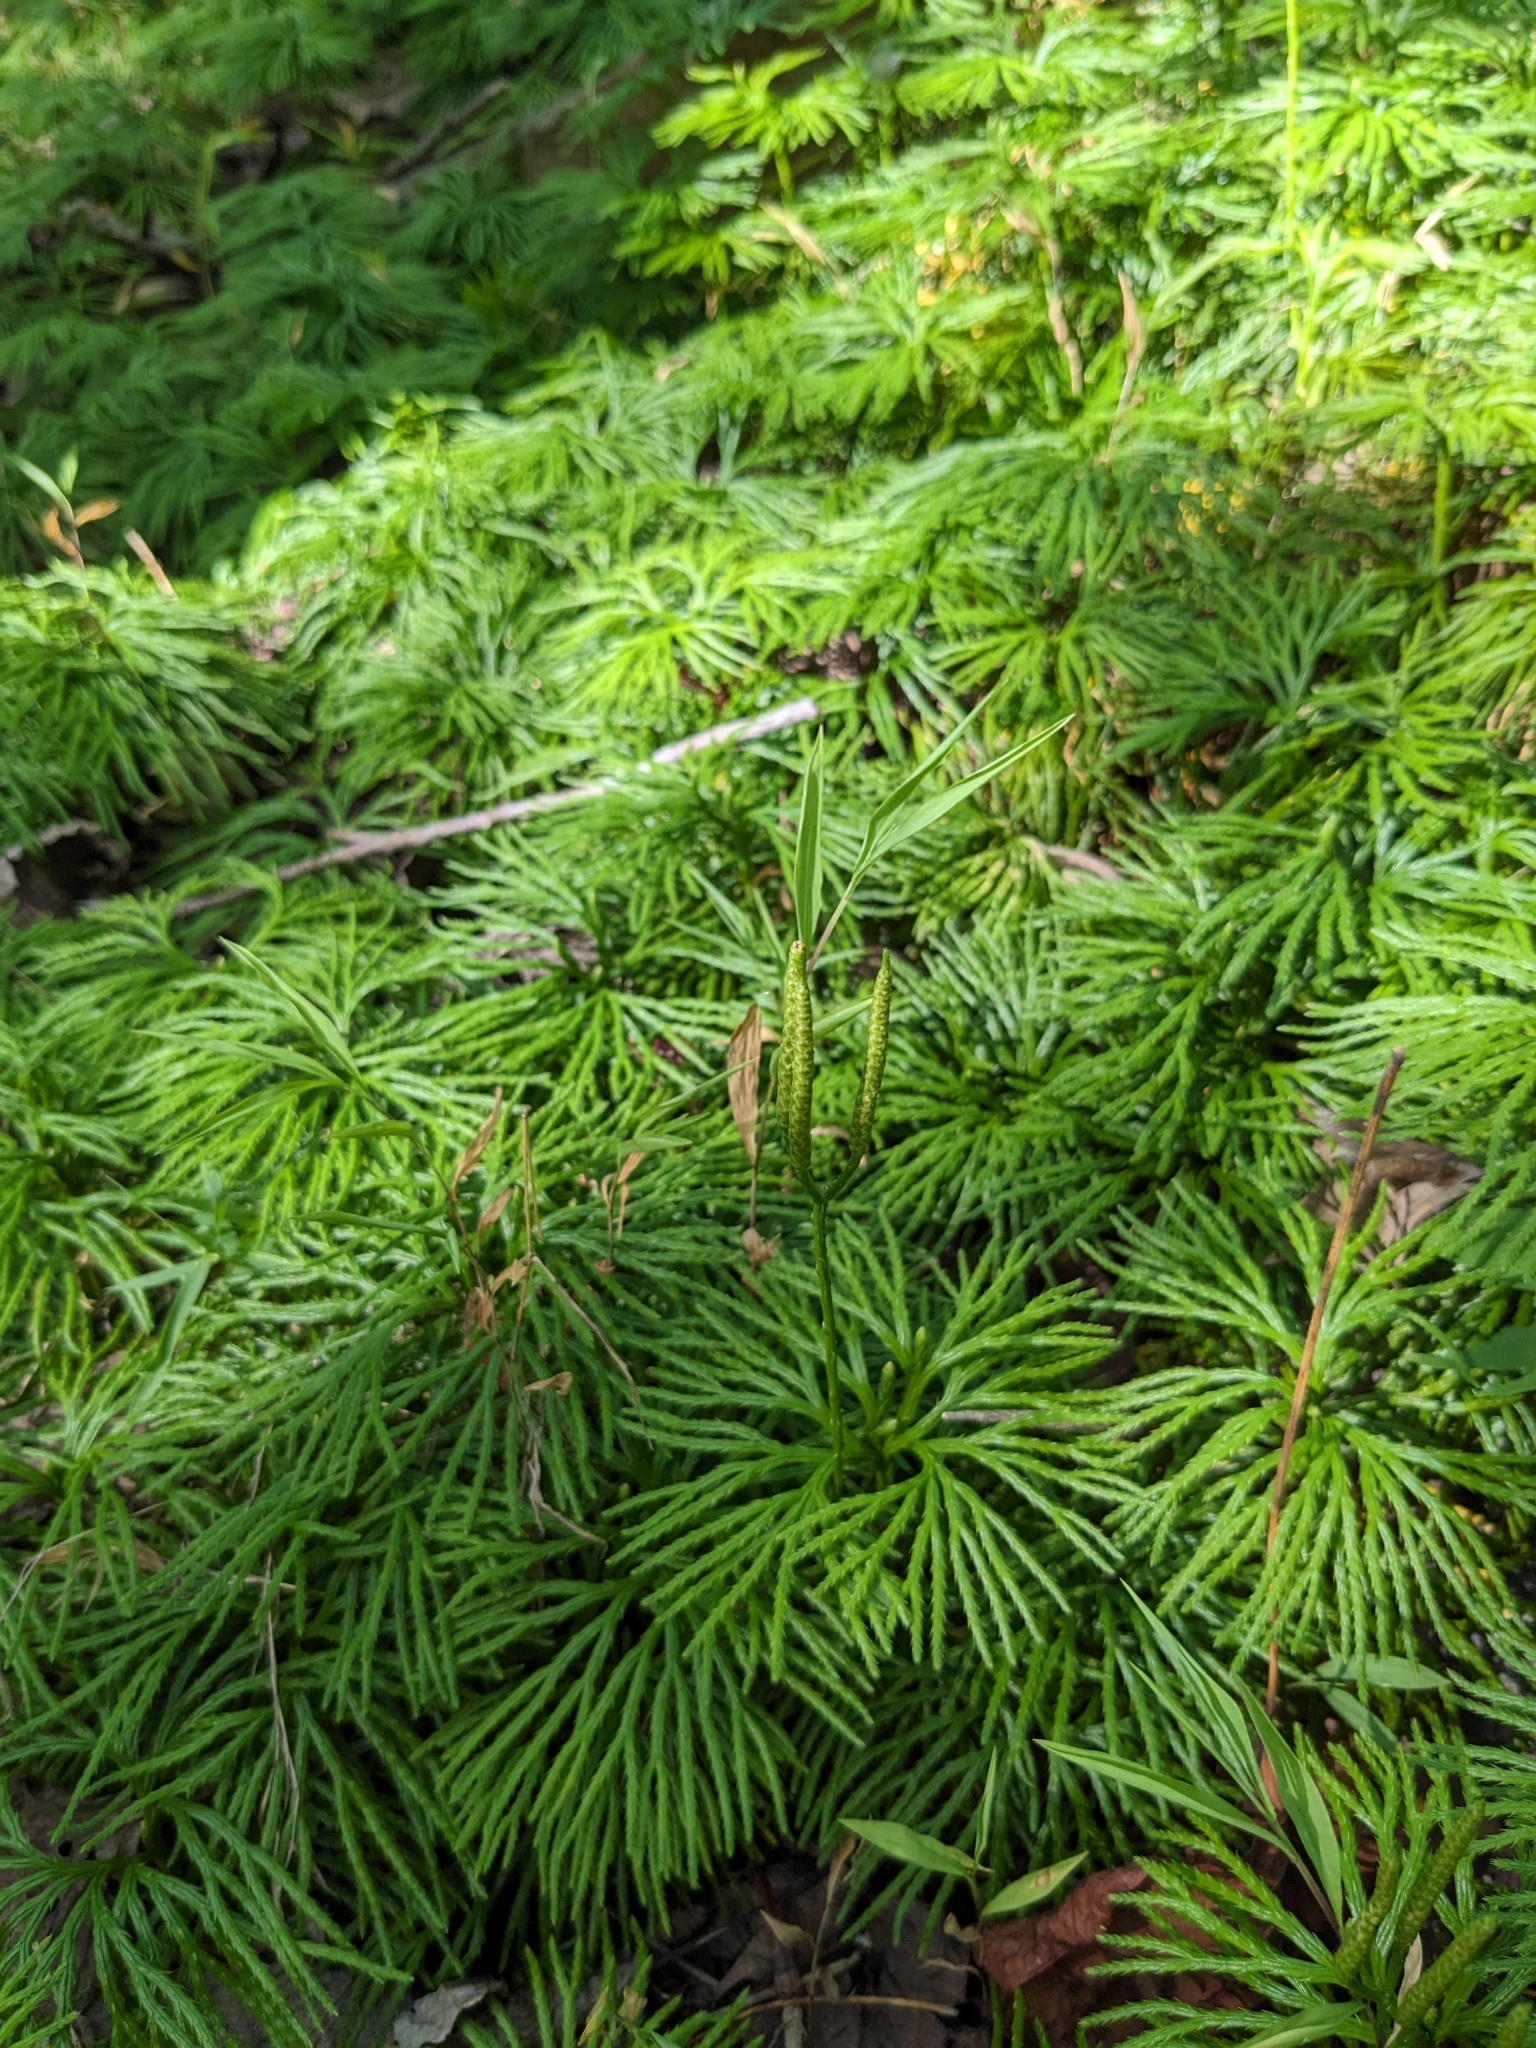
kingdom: Plantae
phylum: Tracheophyta
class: Lycopodiopsida
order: Lycopodiales
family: Lycopodiaceae
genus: Diphasiastrum
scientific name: Diphasiastrum digitatum
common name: Southern running-pine
